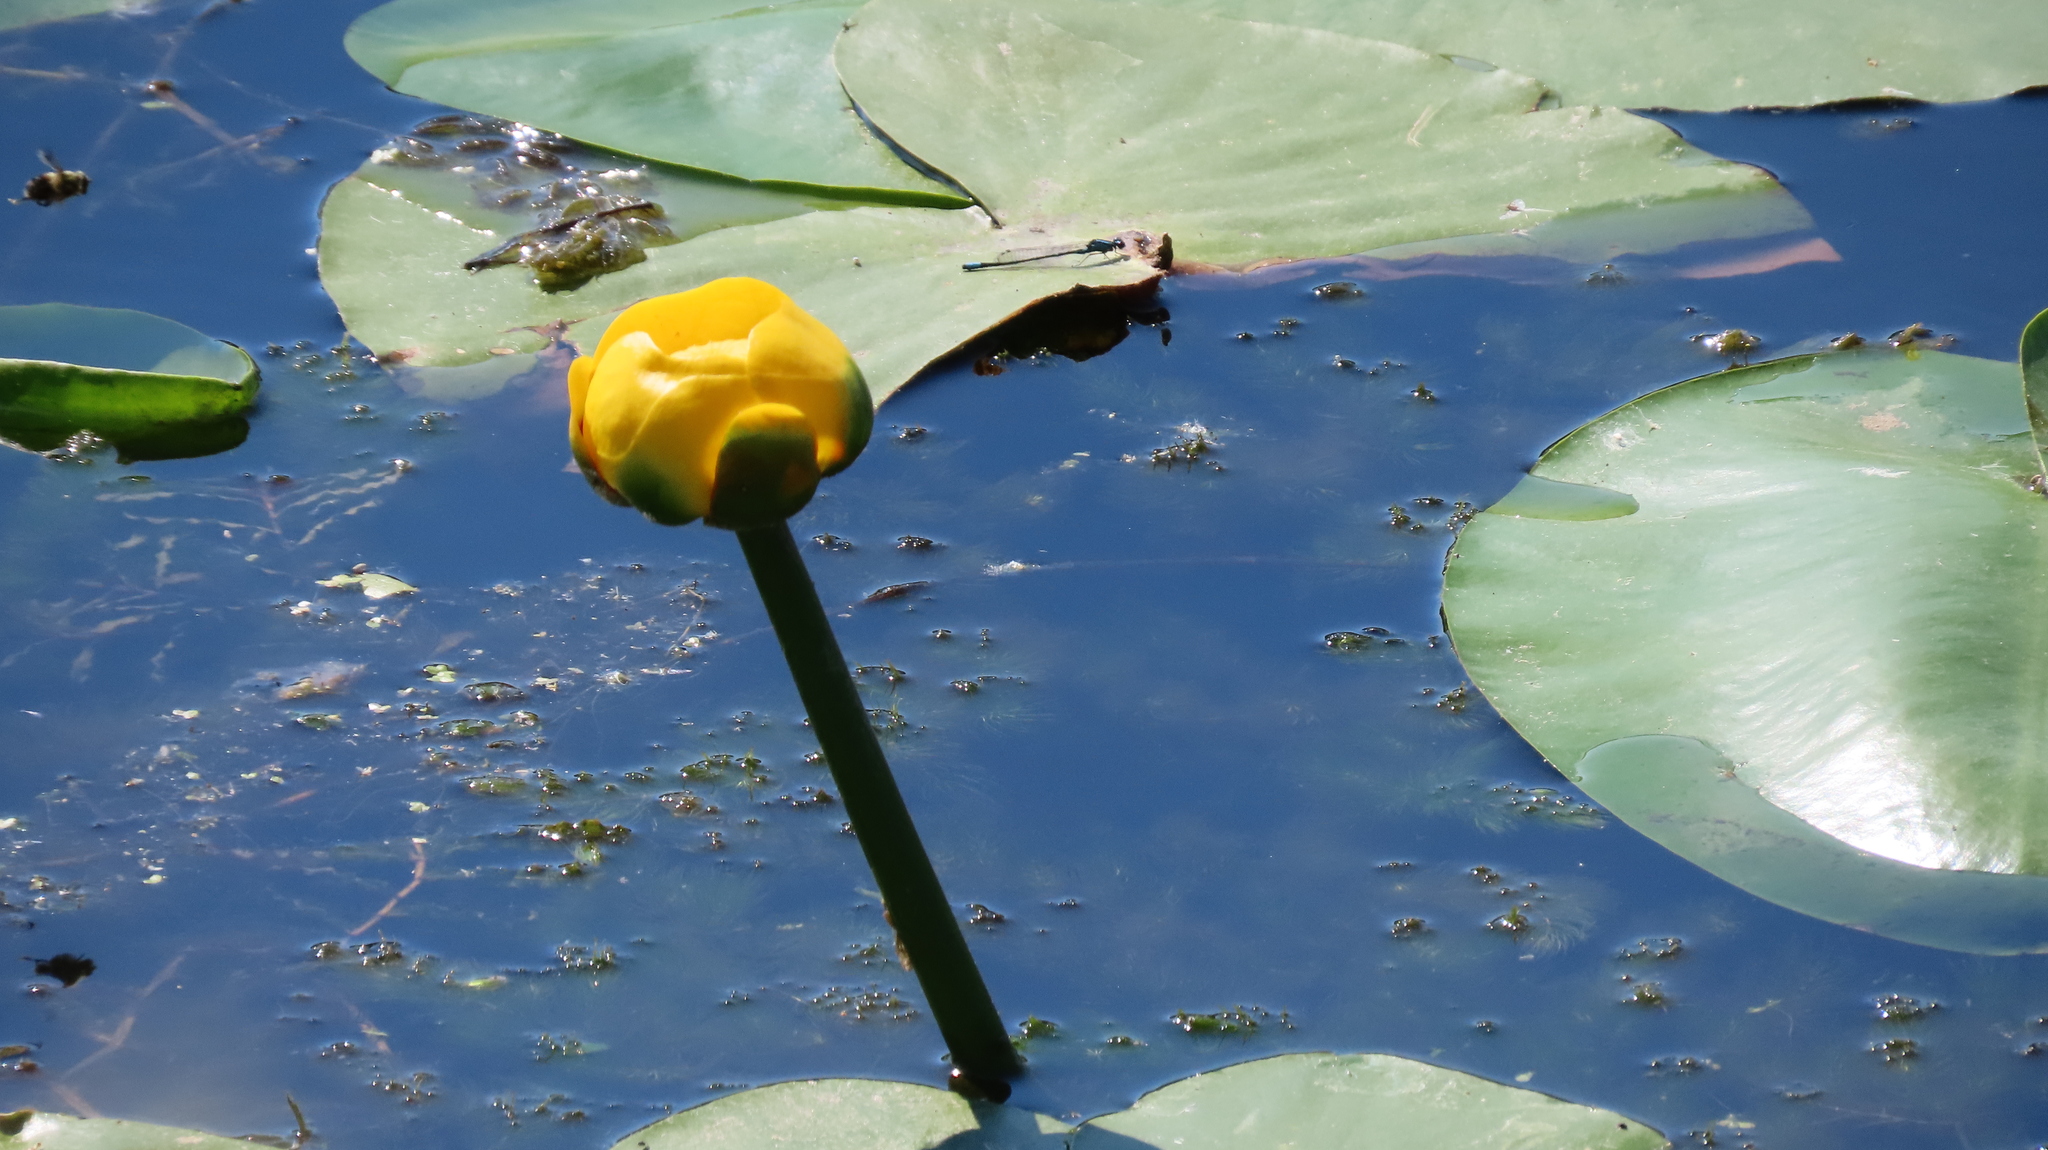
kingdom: Plantae
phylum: Tracheophyta
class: Magnoliopsida
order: Nymphaeales
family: Nymphaeaceae
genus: Nuphar
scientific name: Nuphar variegata
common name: Beaver-root
